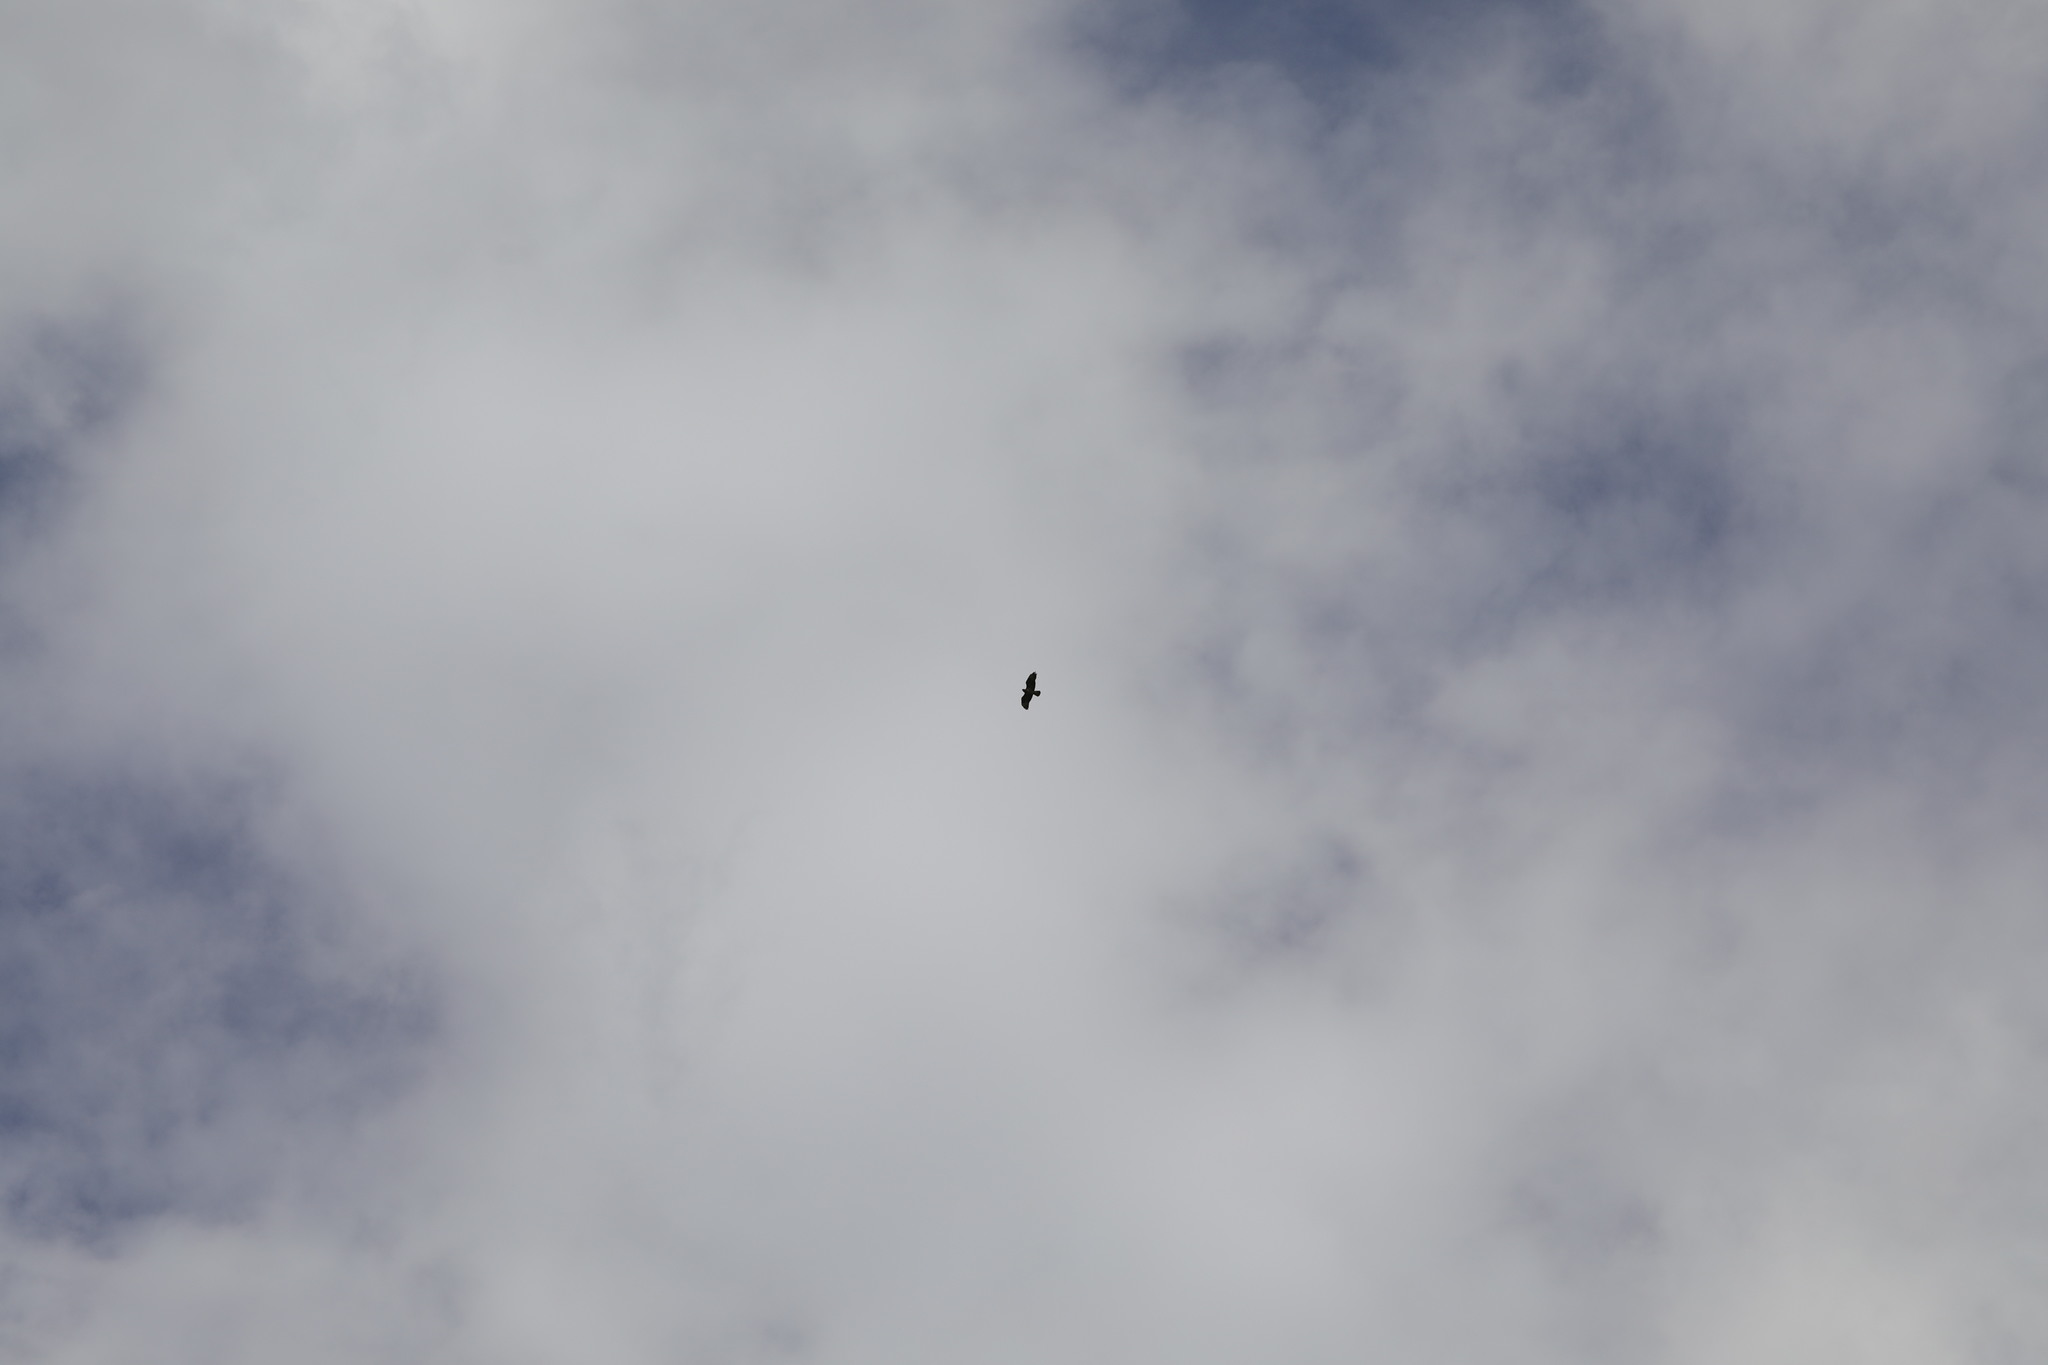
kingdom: Animalia
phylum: Chordata
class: Aves
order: Accipitriformes
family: Accipitridae
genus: Buteo
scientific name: Buteo buteo
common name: Common buzzard
